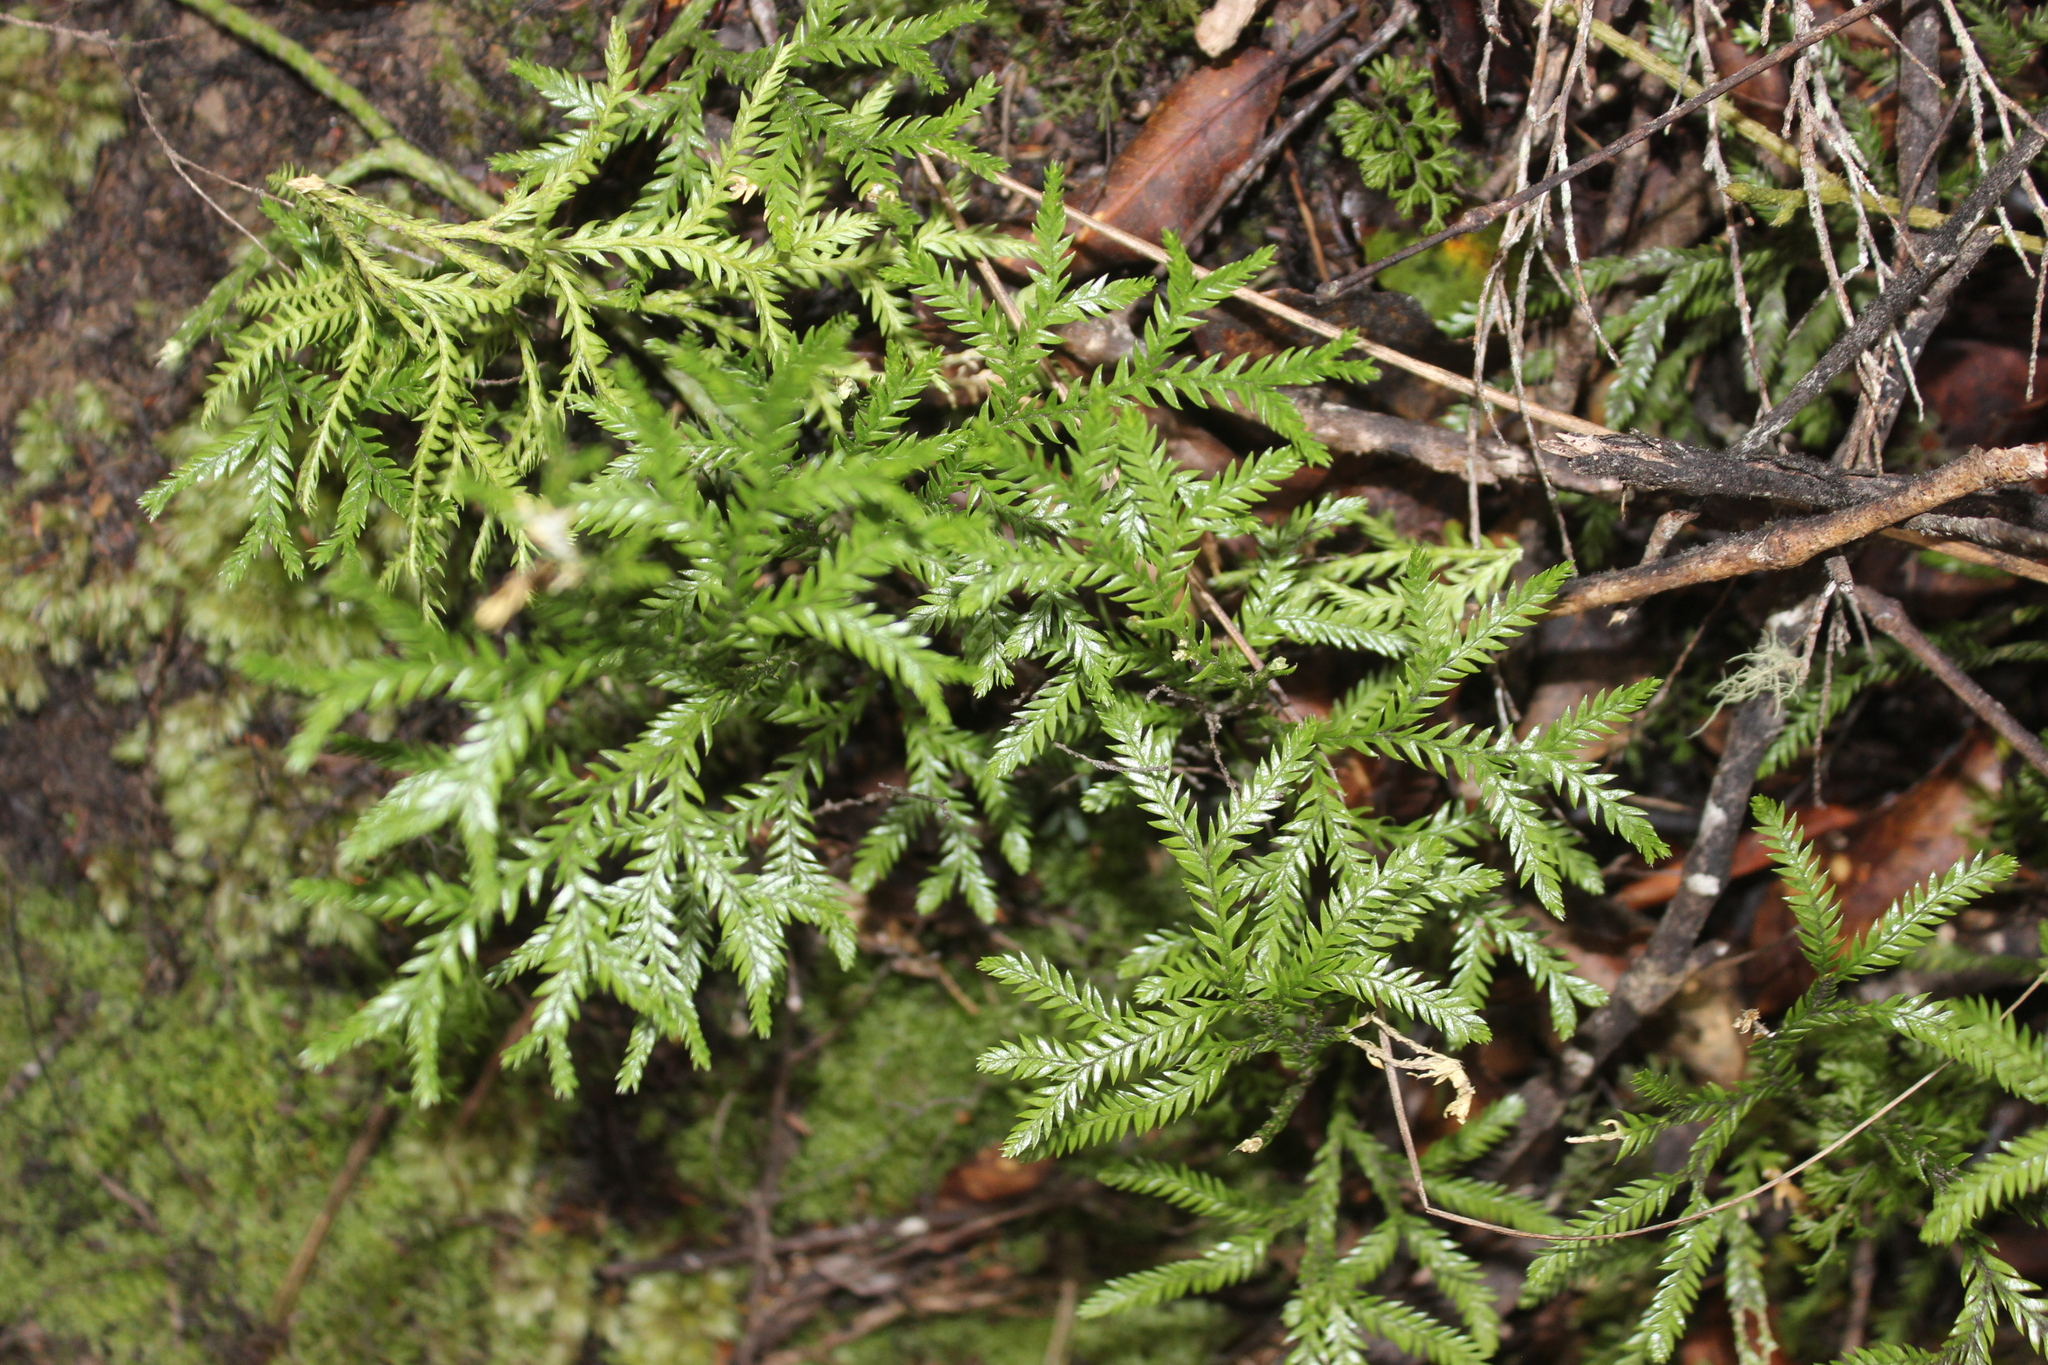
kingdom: Plantae
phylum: Tracheophyta
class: Lycopodiopsida
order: Lycopodiales
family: Lycopodiaceae
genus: Diphasium
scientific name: Diphasium scariosum
